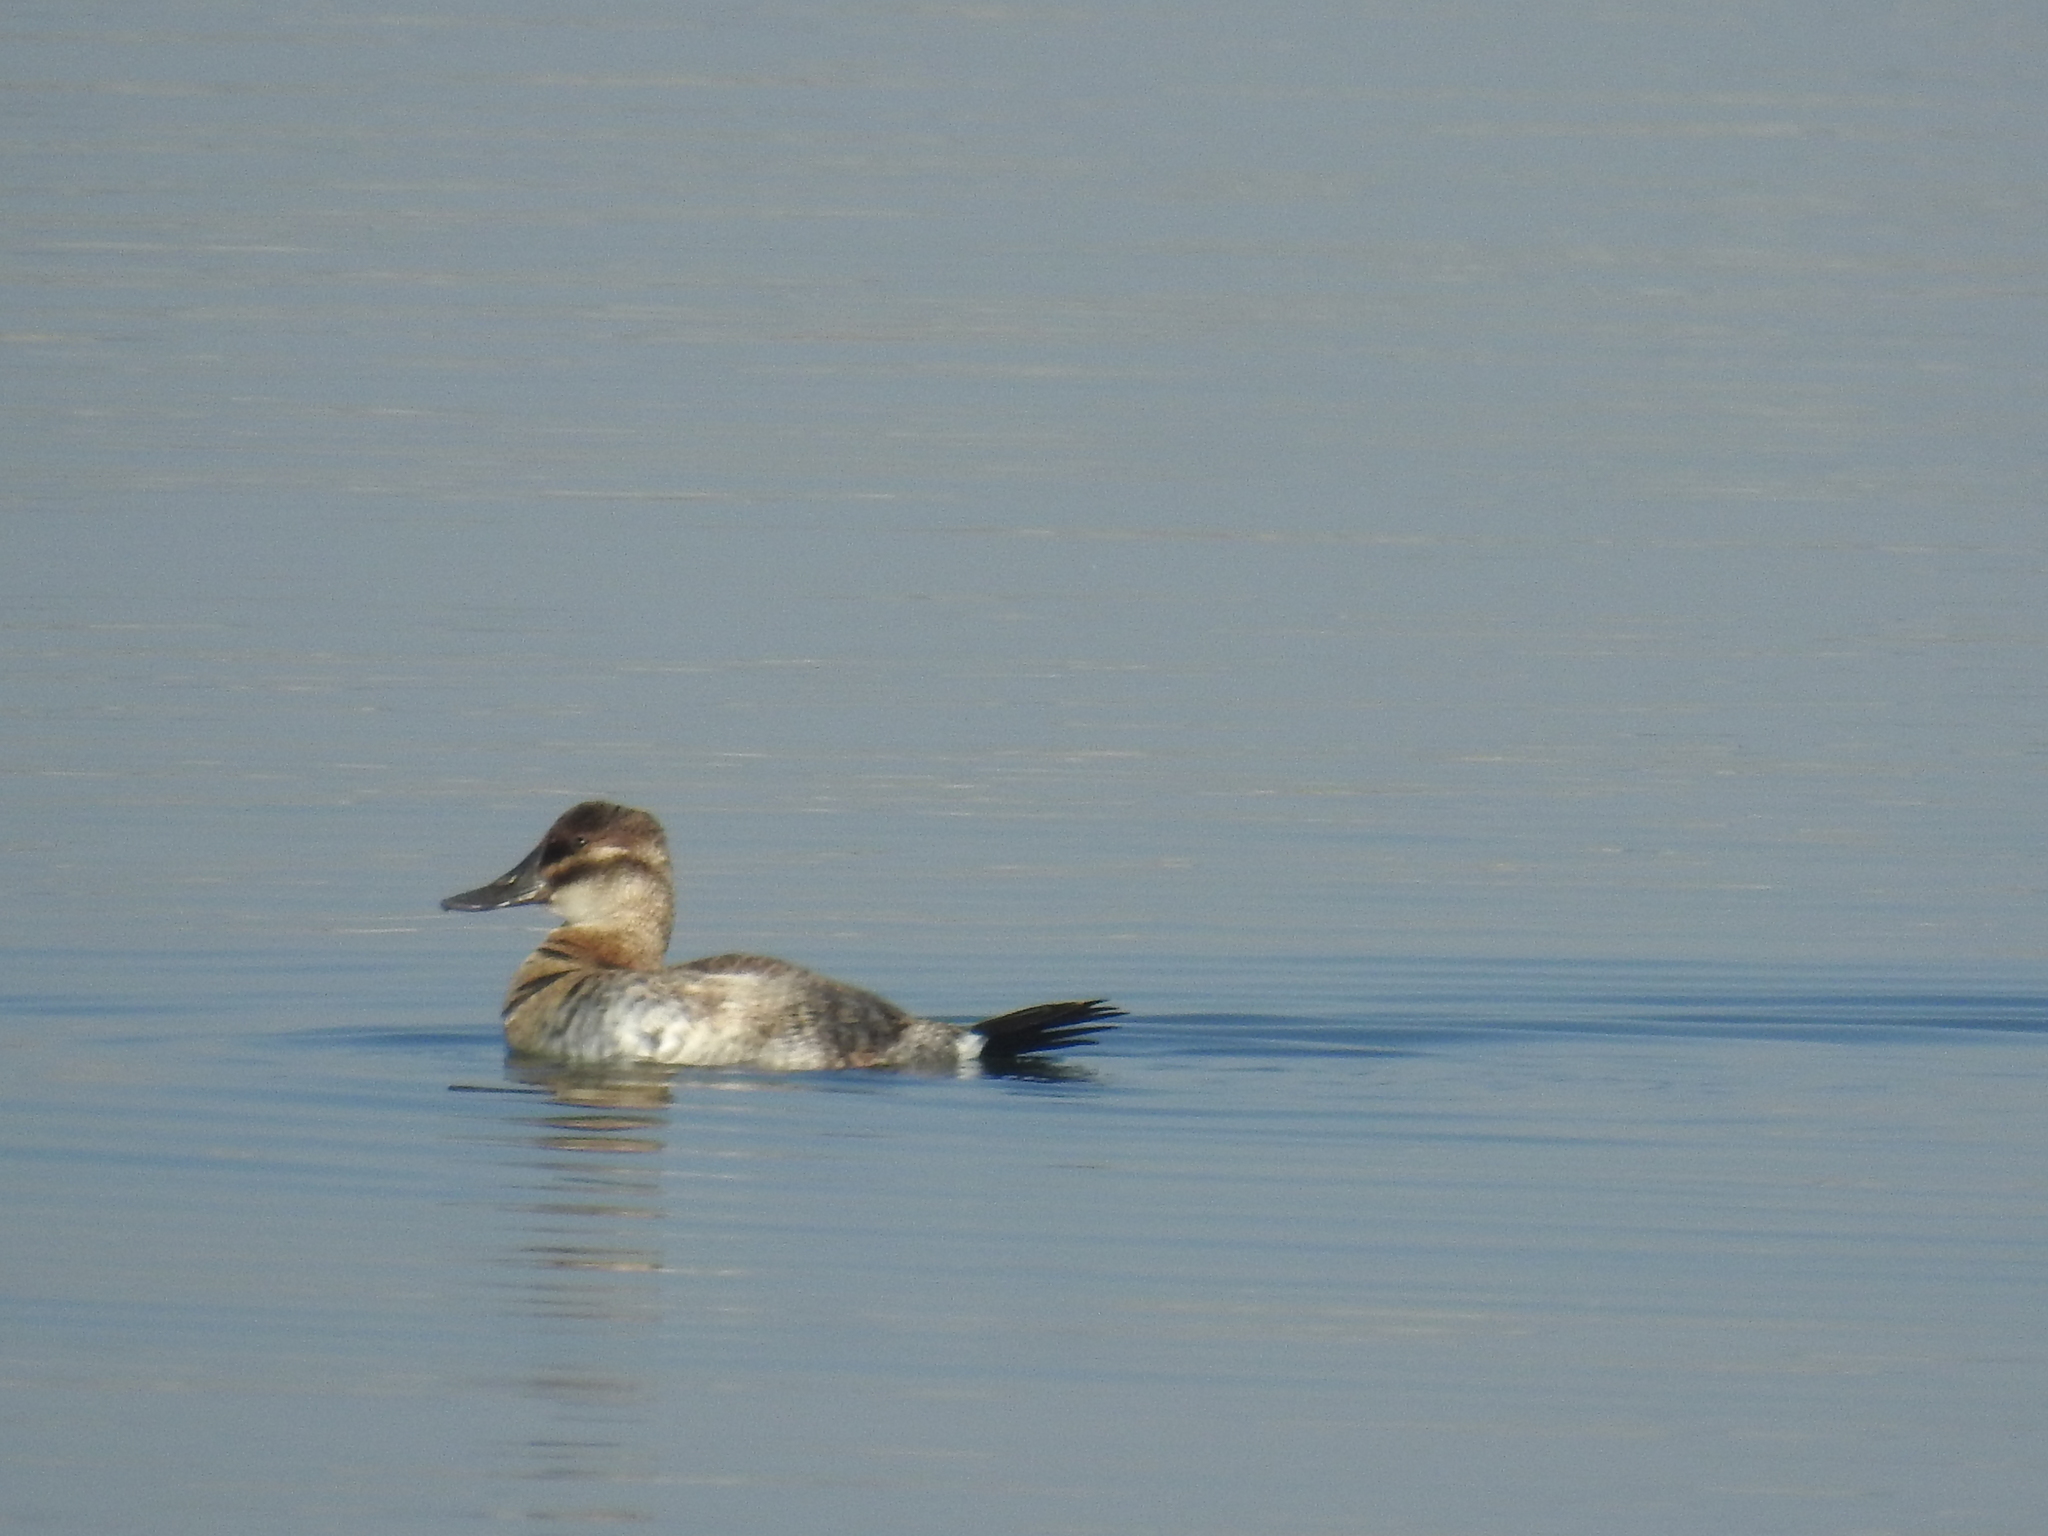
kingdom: Animalia
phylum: Chordata
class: Aves
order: Anseriformes
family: Anatidae
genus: Oxyura
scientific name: Oxyura jamaicensis
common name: Ruddy duck
